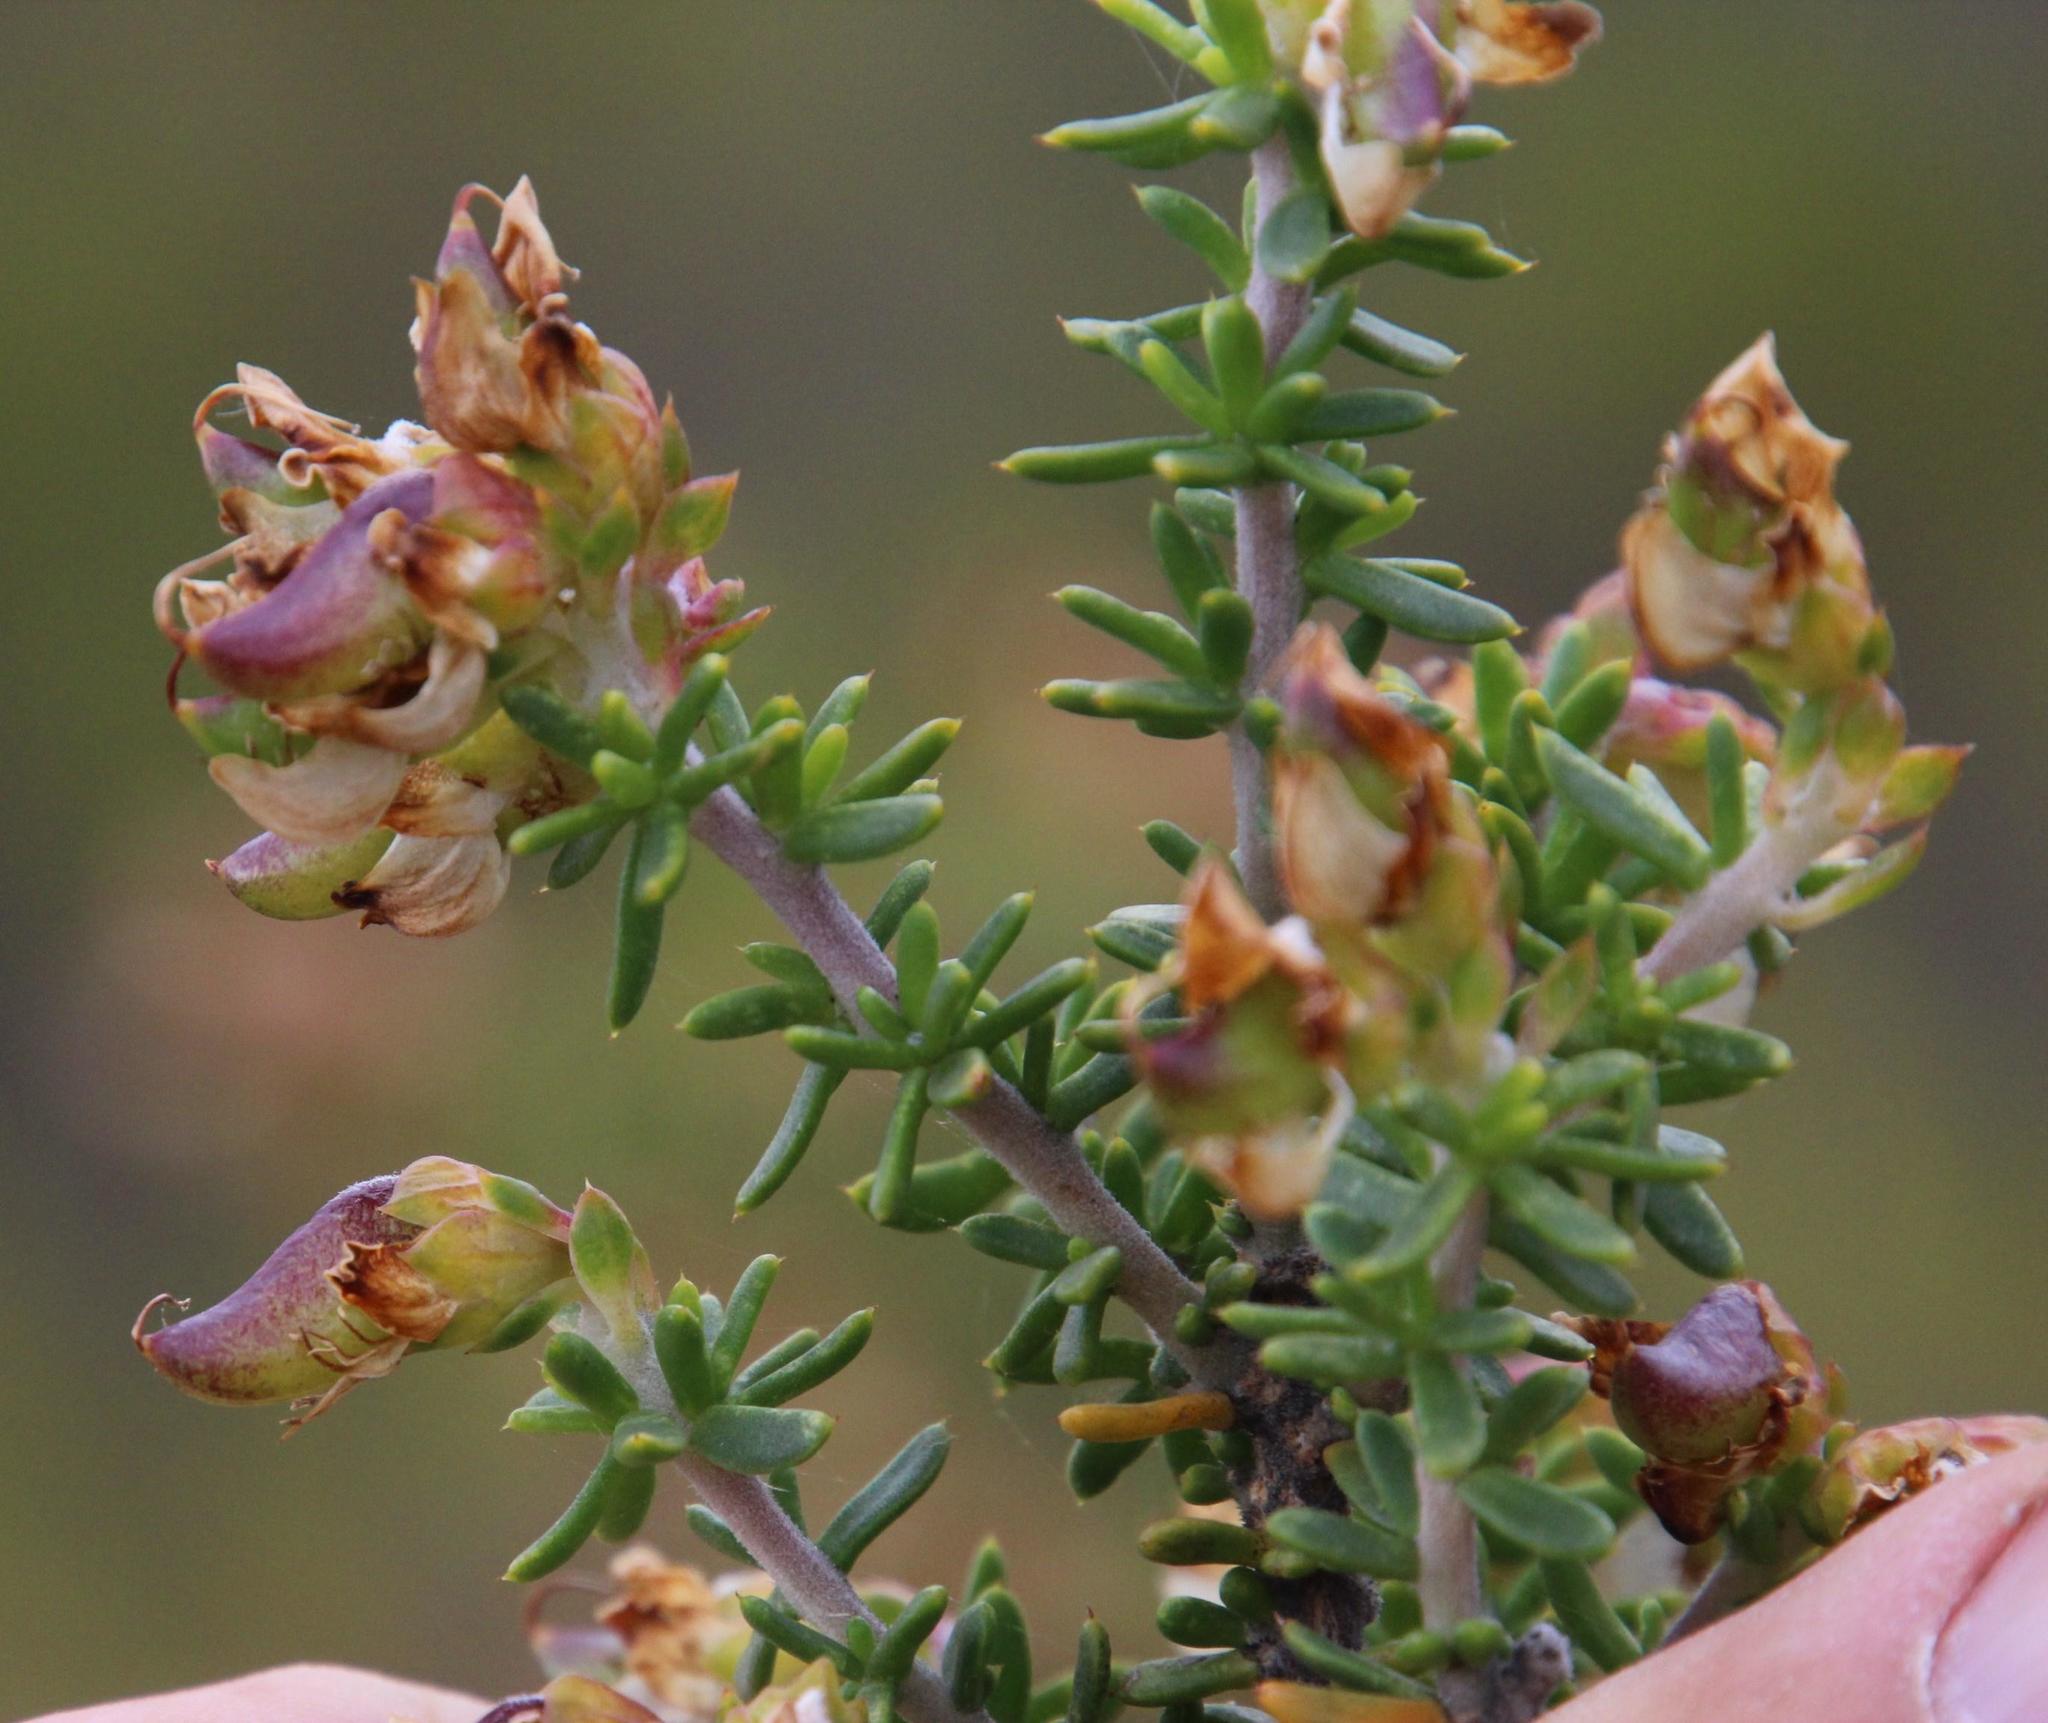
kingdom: Plantae
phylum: Tracheophyta
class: Magnoliopsida
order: Fabales
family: Fabaceae
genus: Aspalathus
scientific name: Aspalathus fusca
